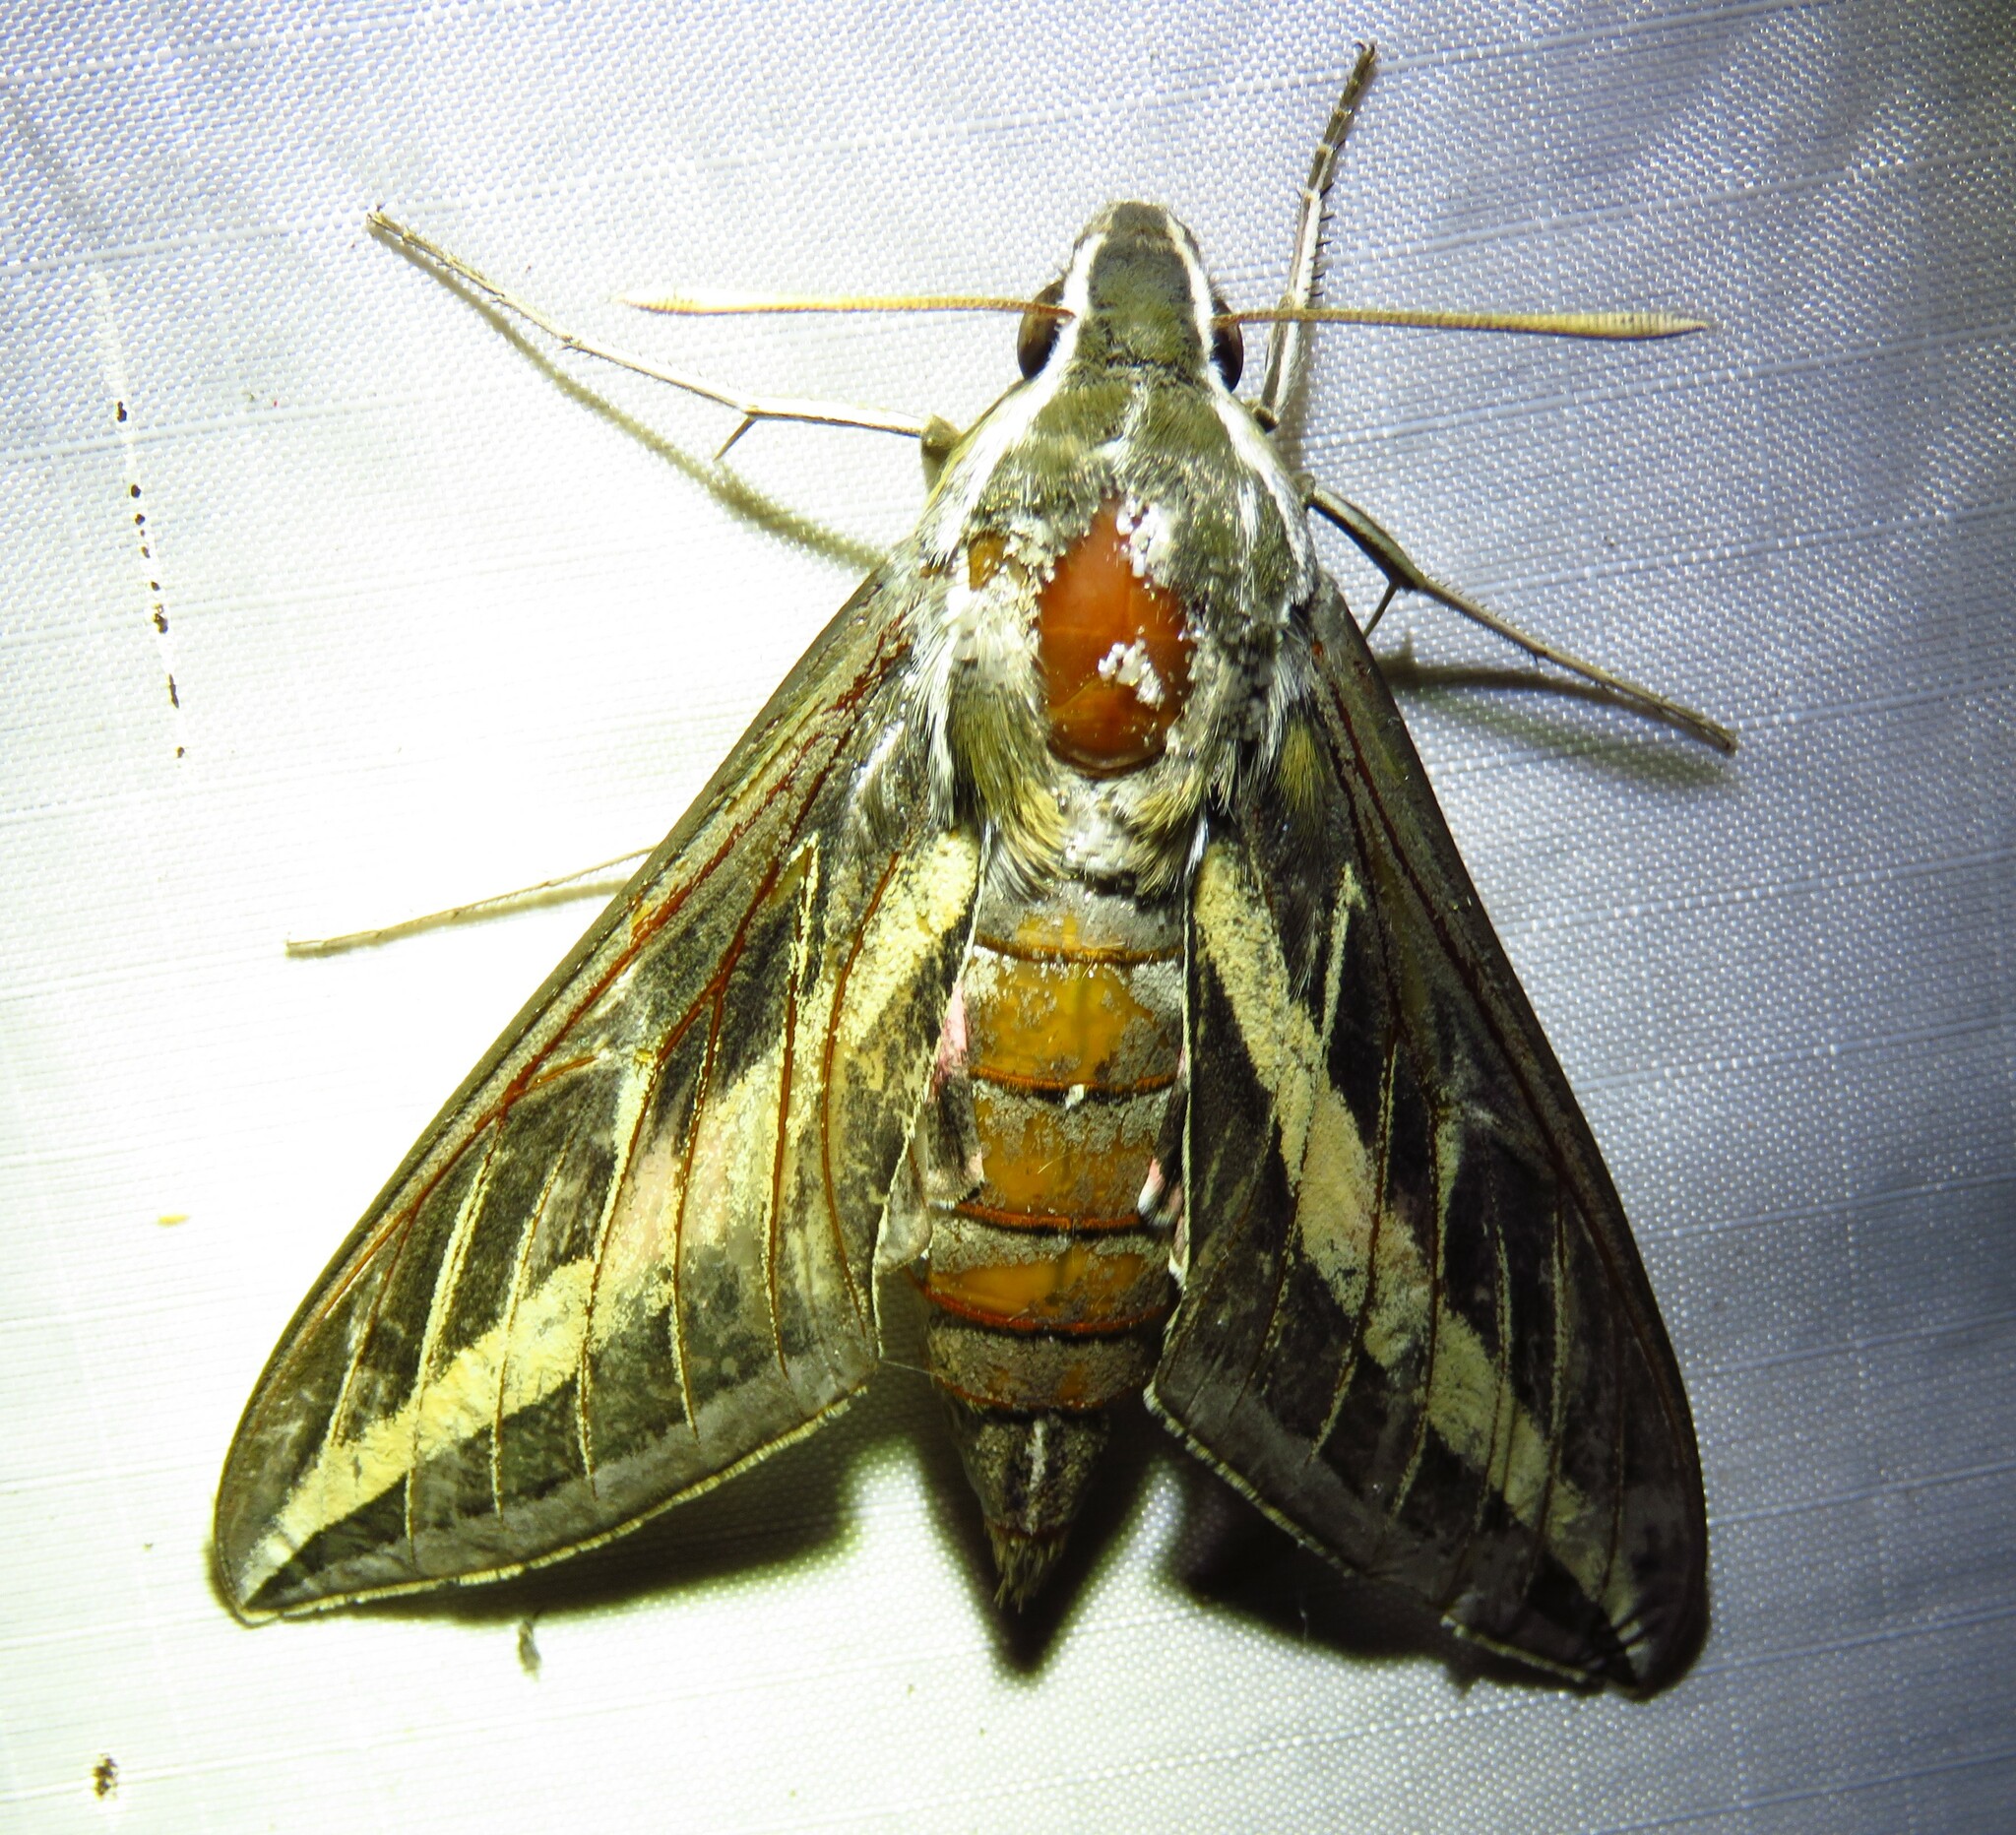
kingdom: Animalia
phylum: Arthropoda
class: Insecta
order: Lepidoptera
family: Sphingidae
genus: Hyles
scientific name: Hyles lineata
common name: White-lined sphinx
